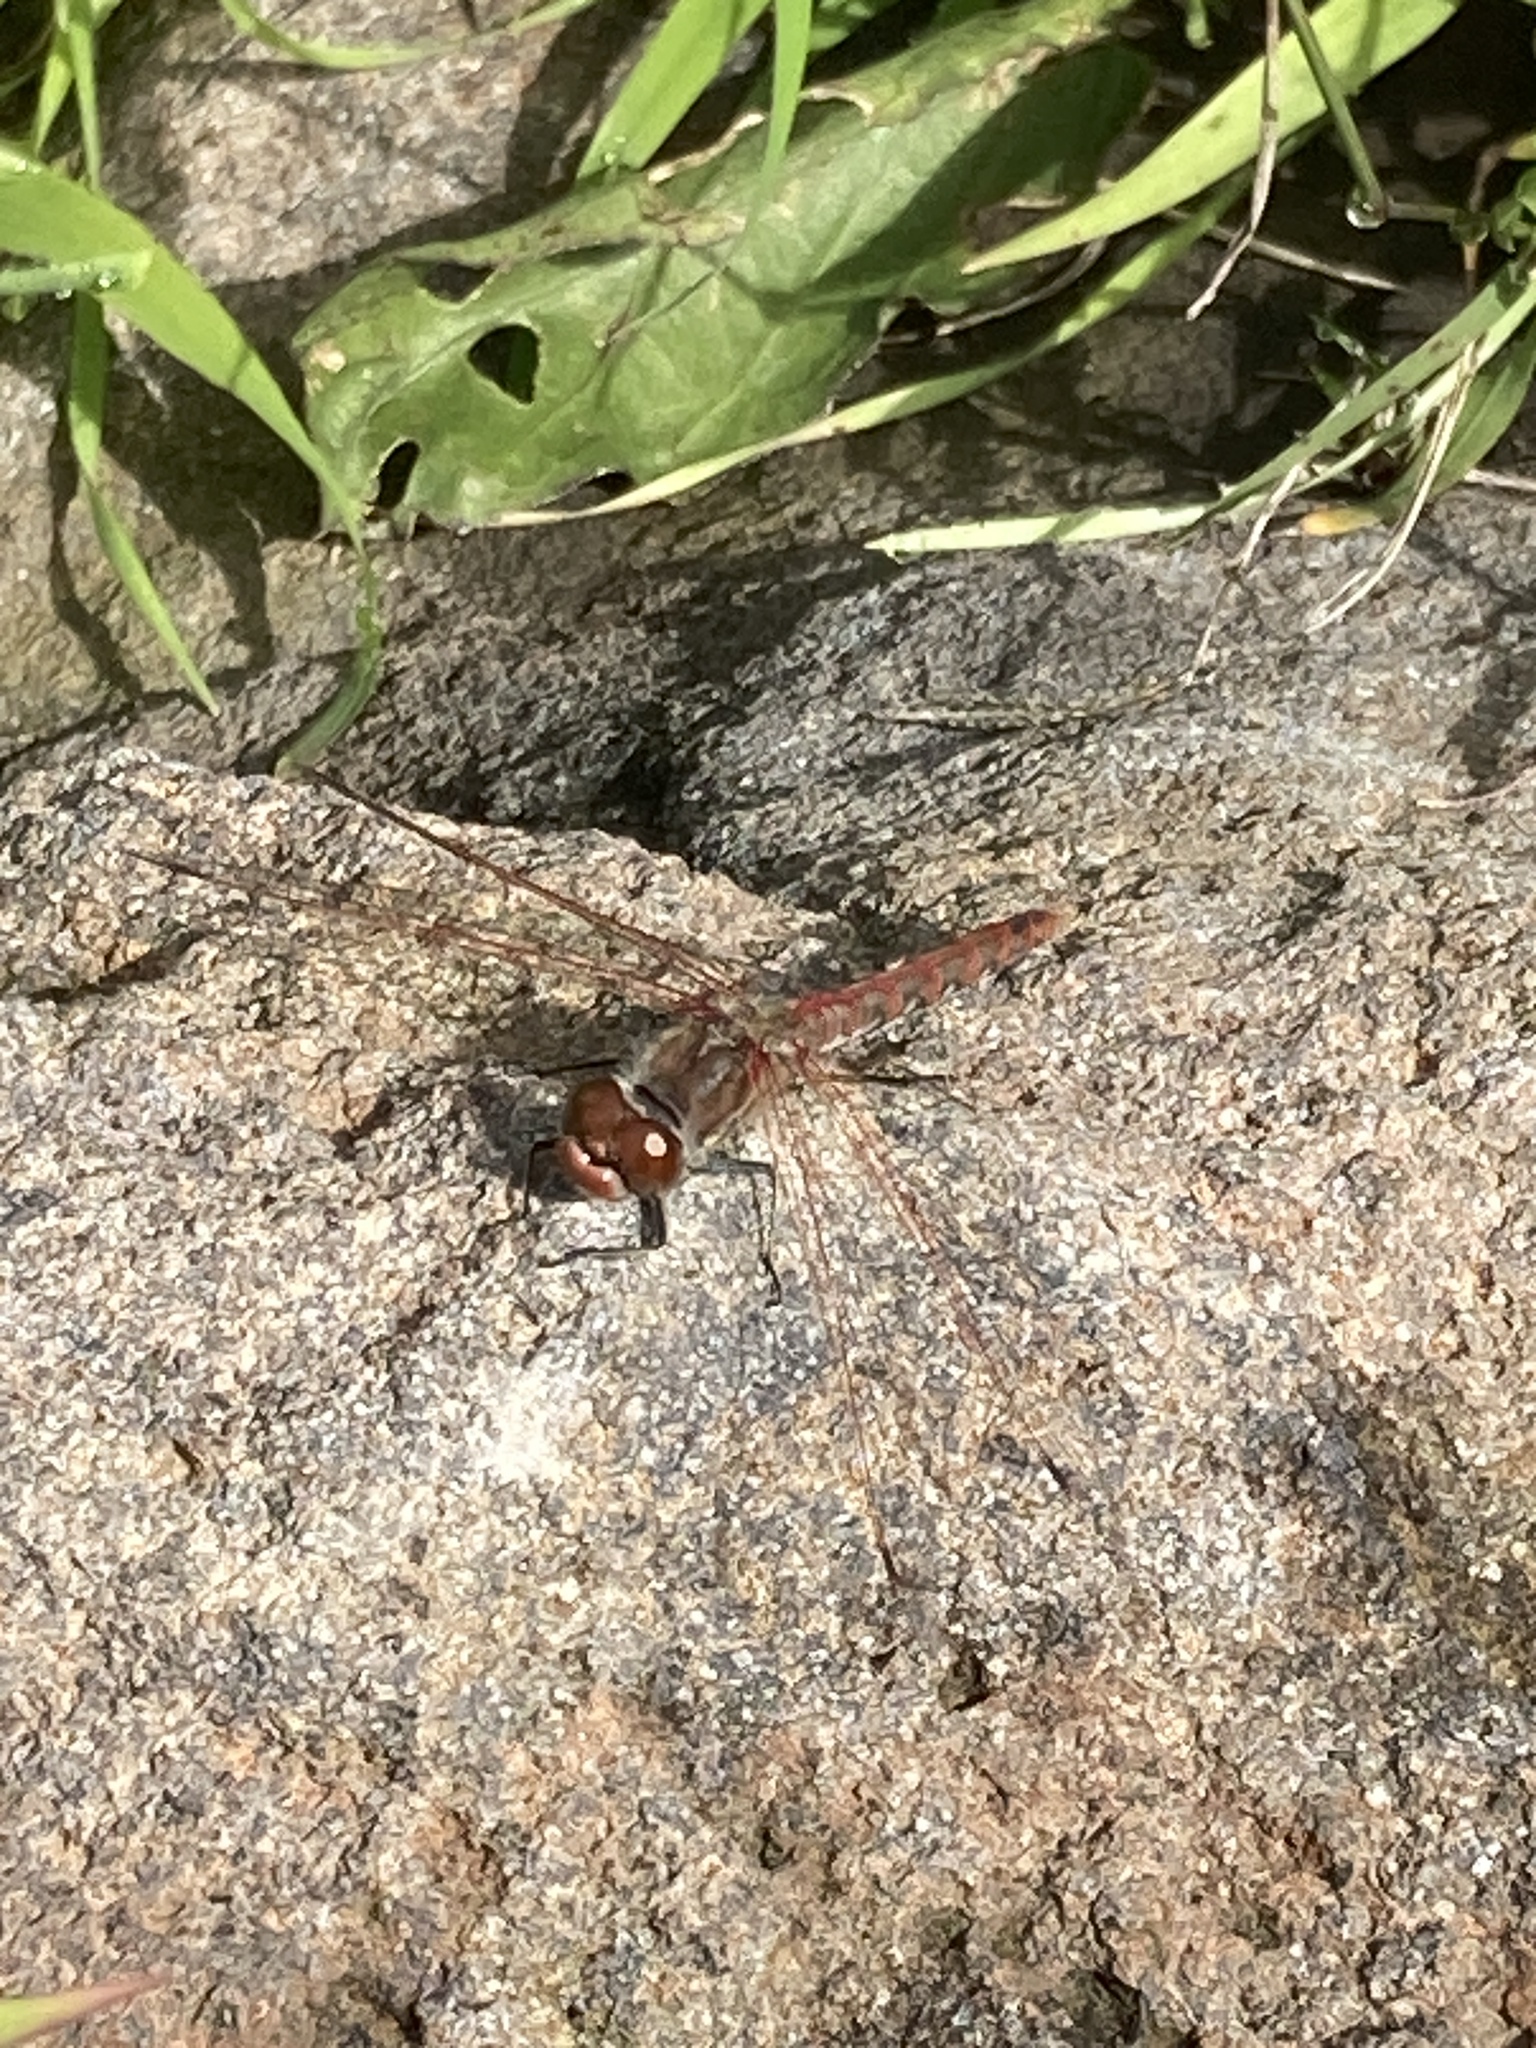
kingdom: Animalia
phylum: Arthropoda
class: Insecta
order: Odonata
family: Libellulidae
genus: Sympetrum
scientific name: Sympetrum corruptum
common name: Variegated meadowhawk
